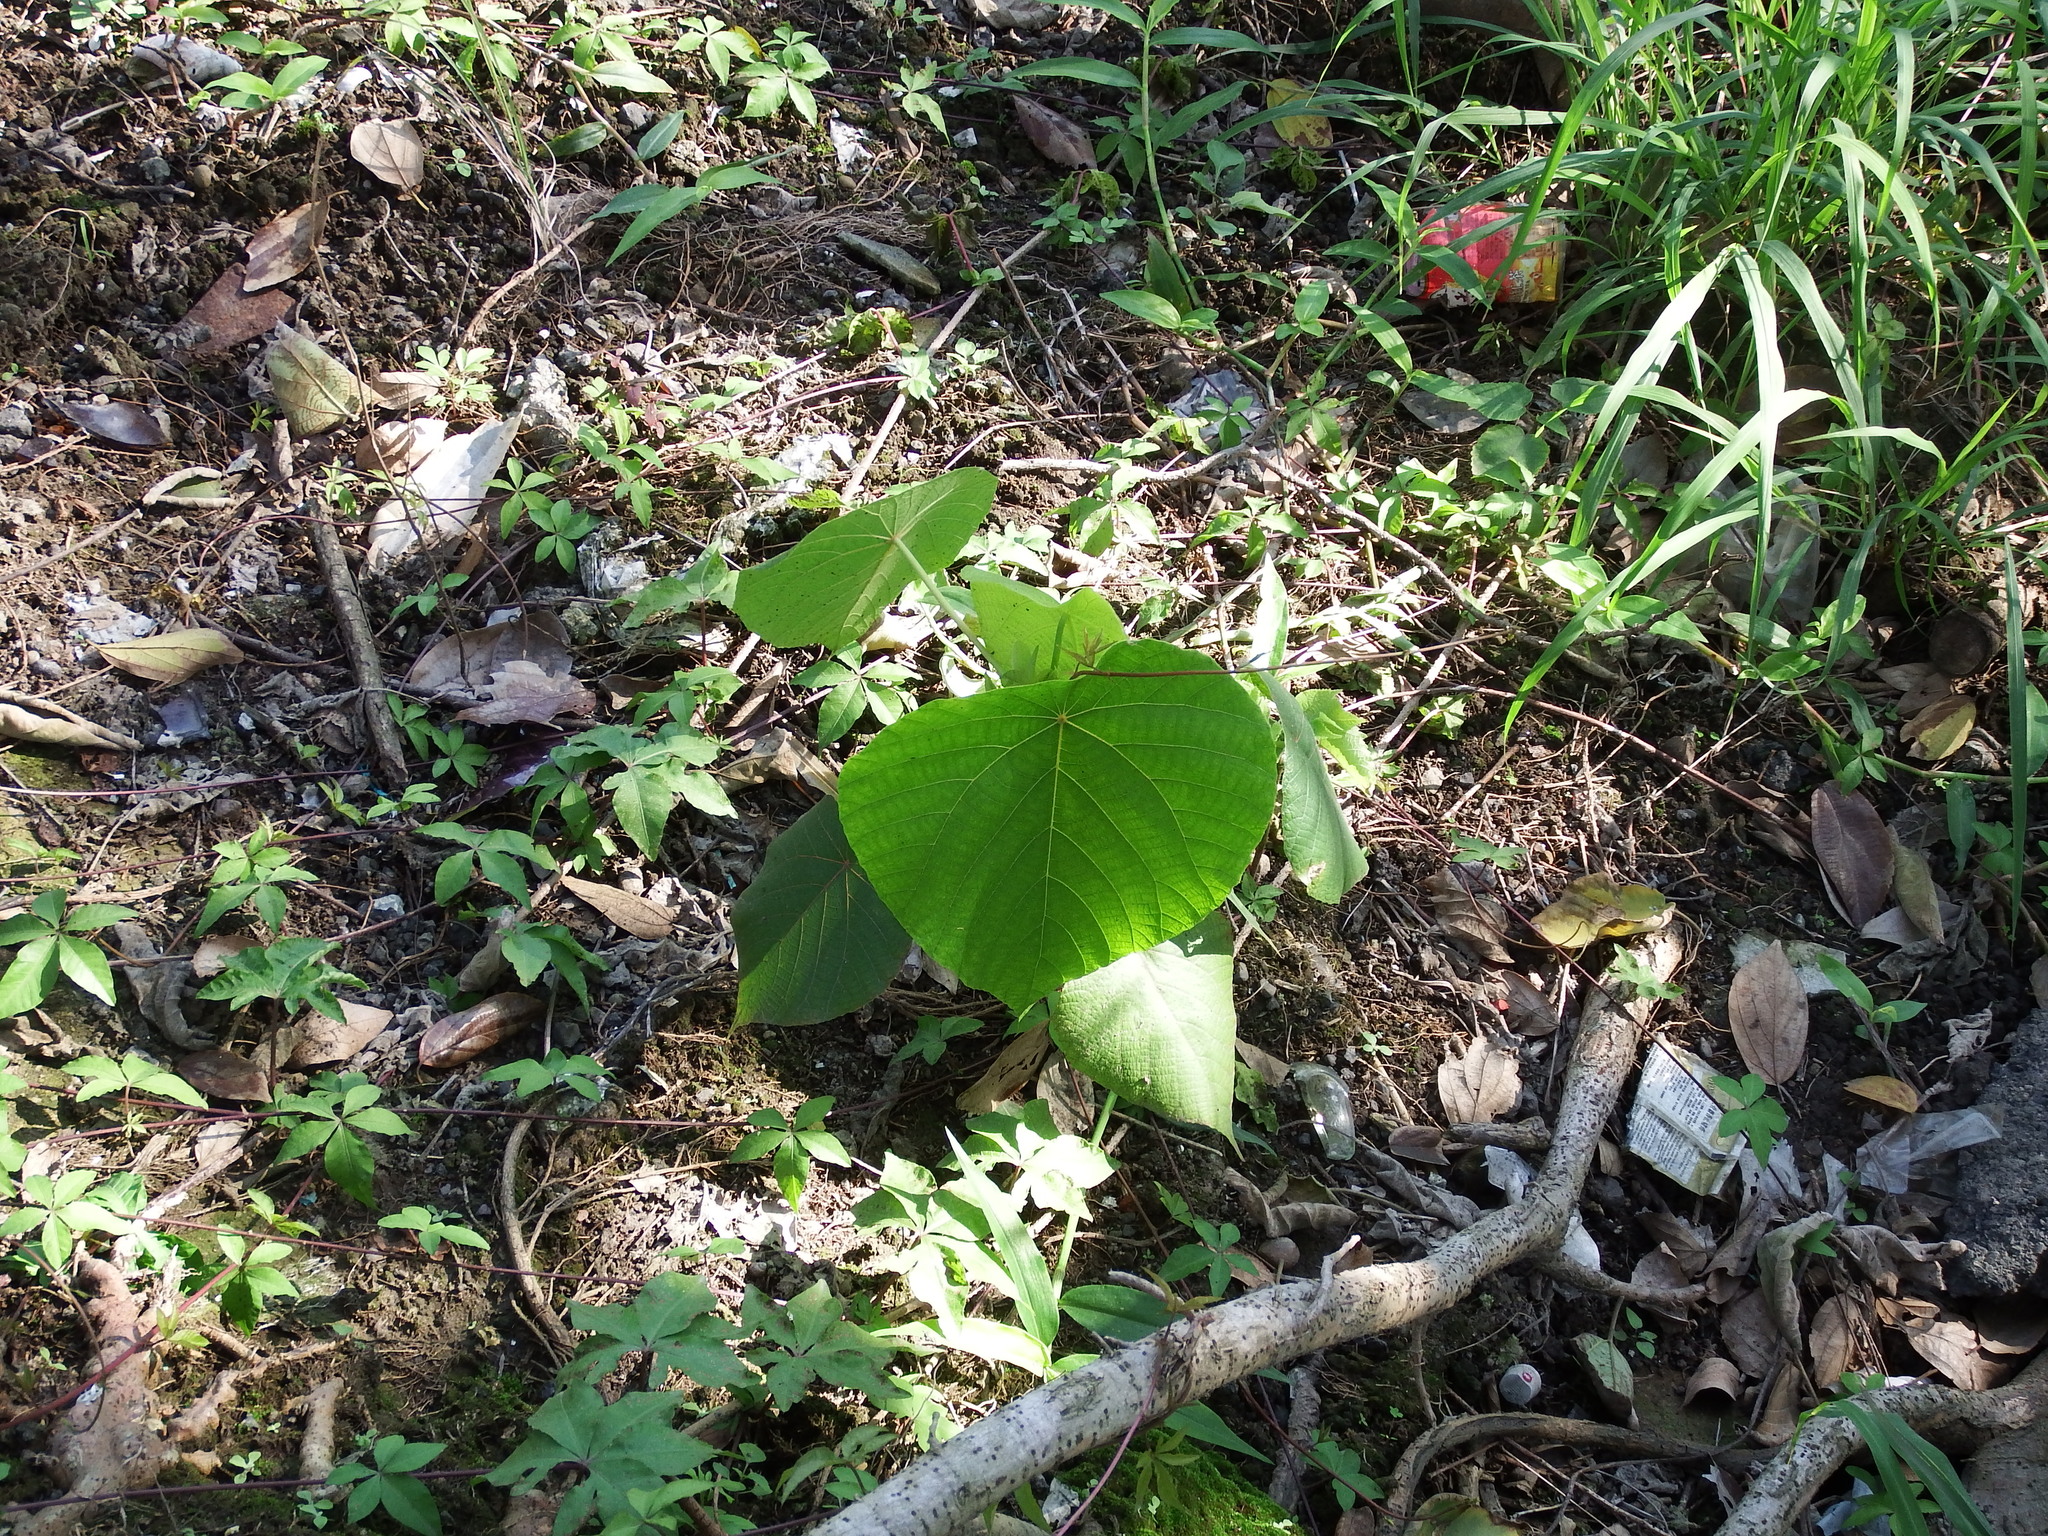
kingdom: Plantae
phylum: Tracheophyta
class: Magnoliopsida
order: Malpighiales
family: Euphorbiaceae
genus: Macaranga
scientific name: Macaranga tanarius
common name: Parasol leaf tree
